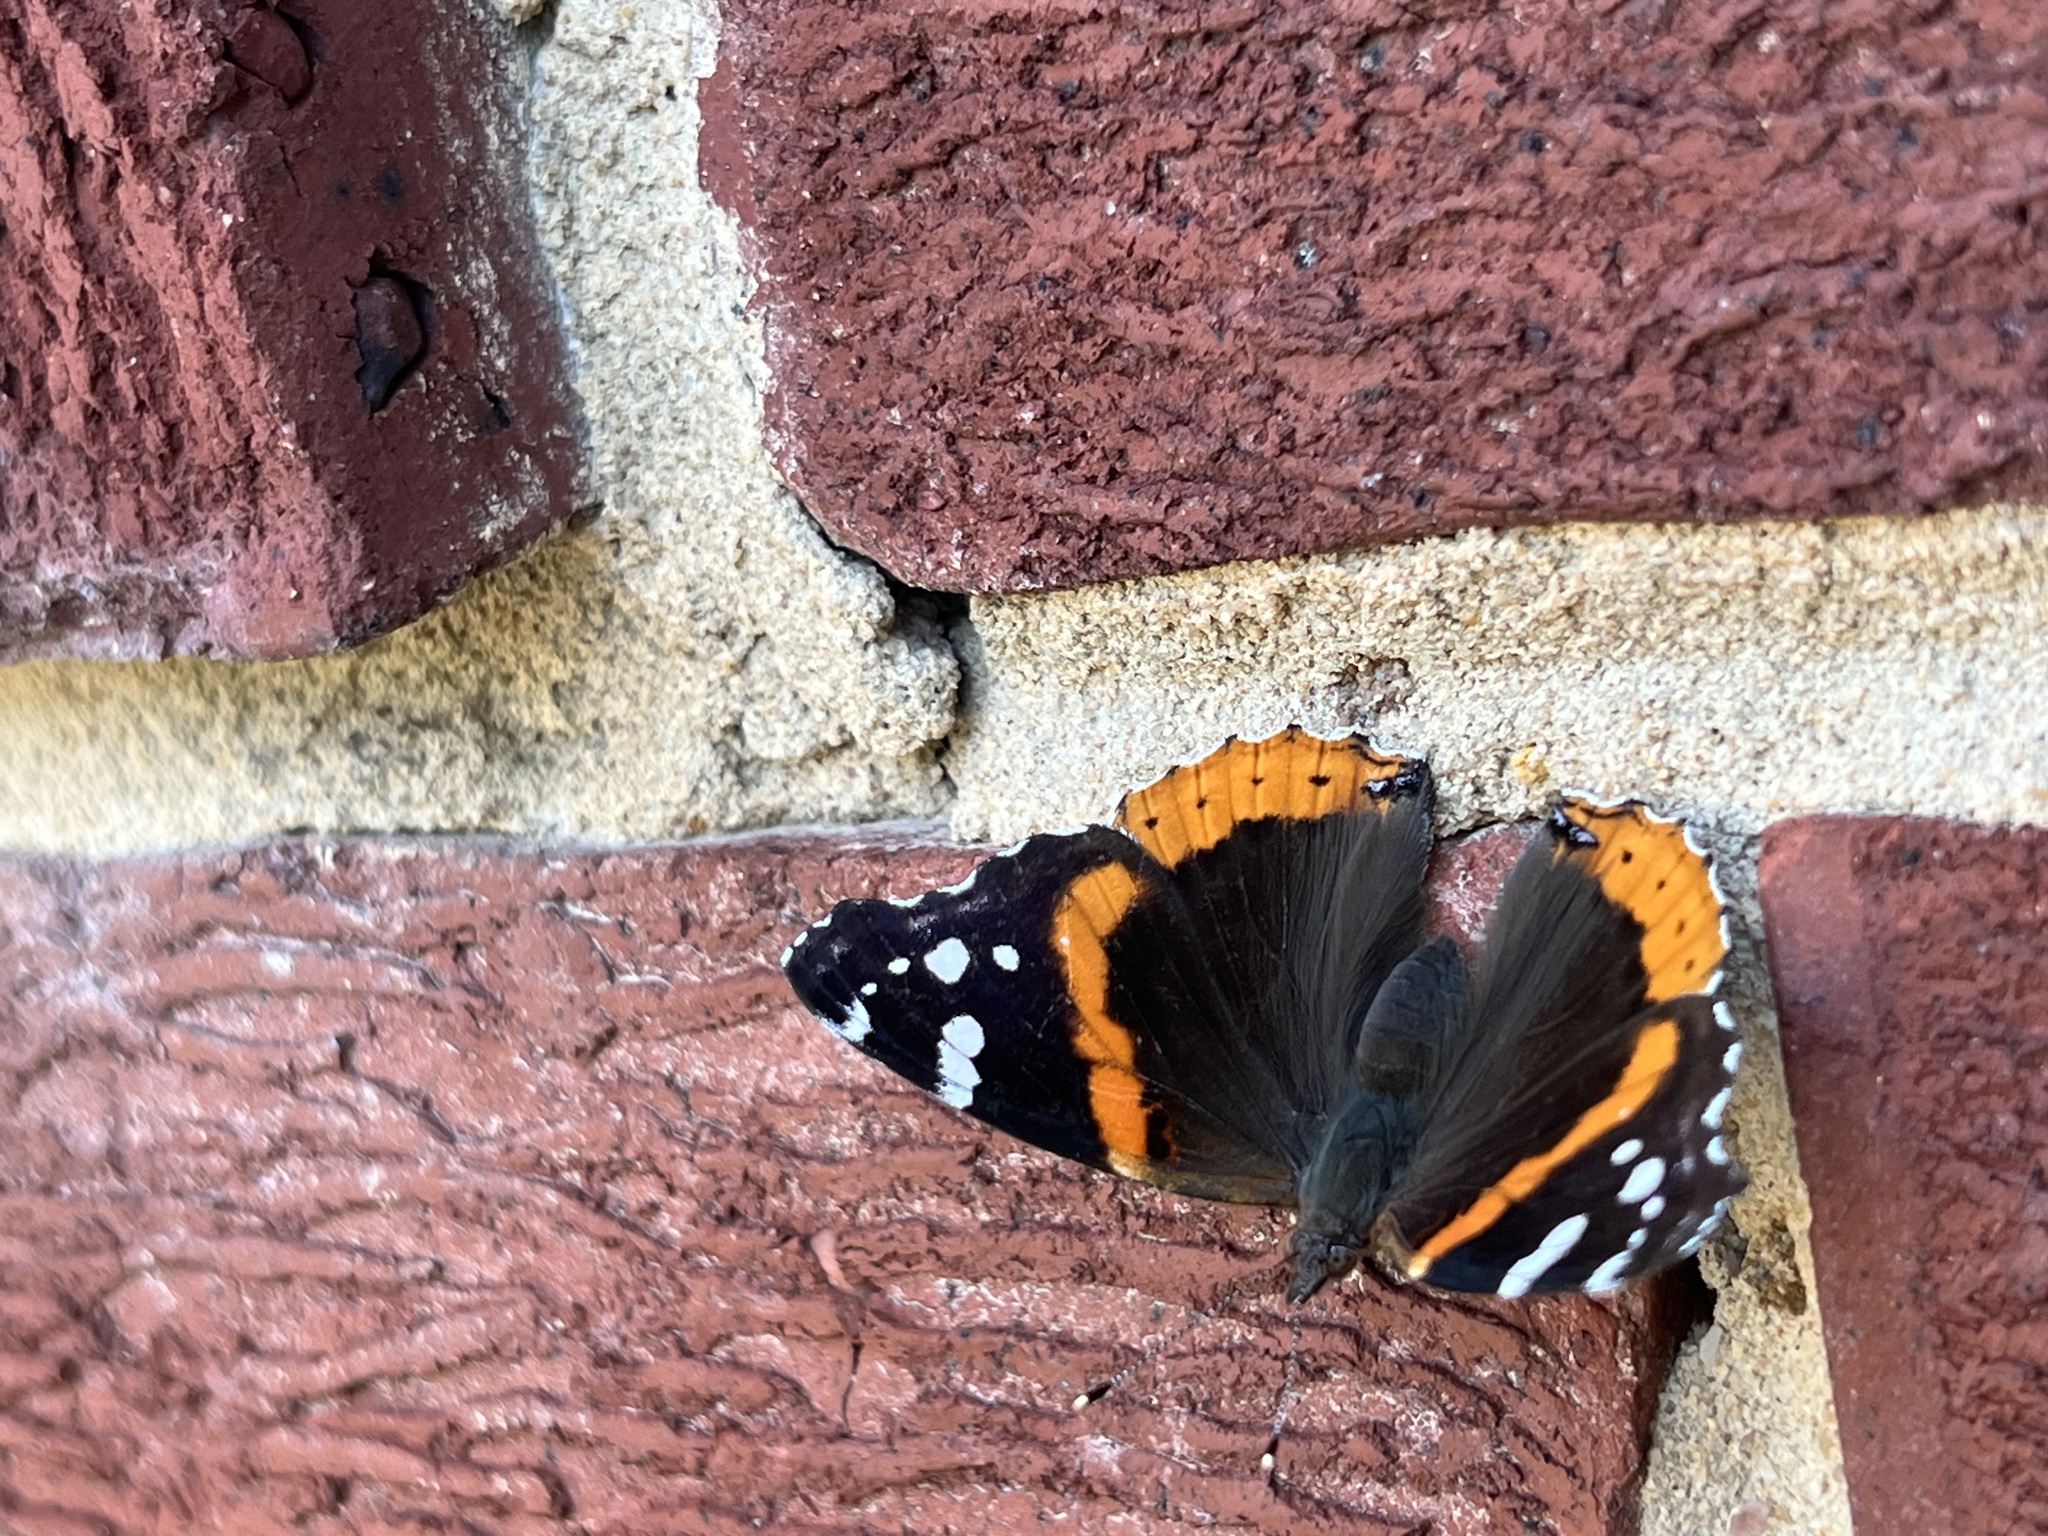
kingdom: Animalia
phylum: Arthropoda
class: Insecta
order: Lepidoptera
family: Nymphalidae
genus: Vanessa
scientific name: Vanessa atalanta
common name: Red admiral
